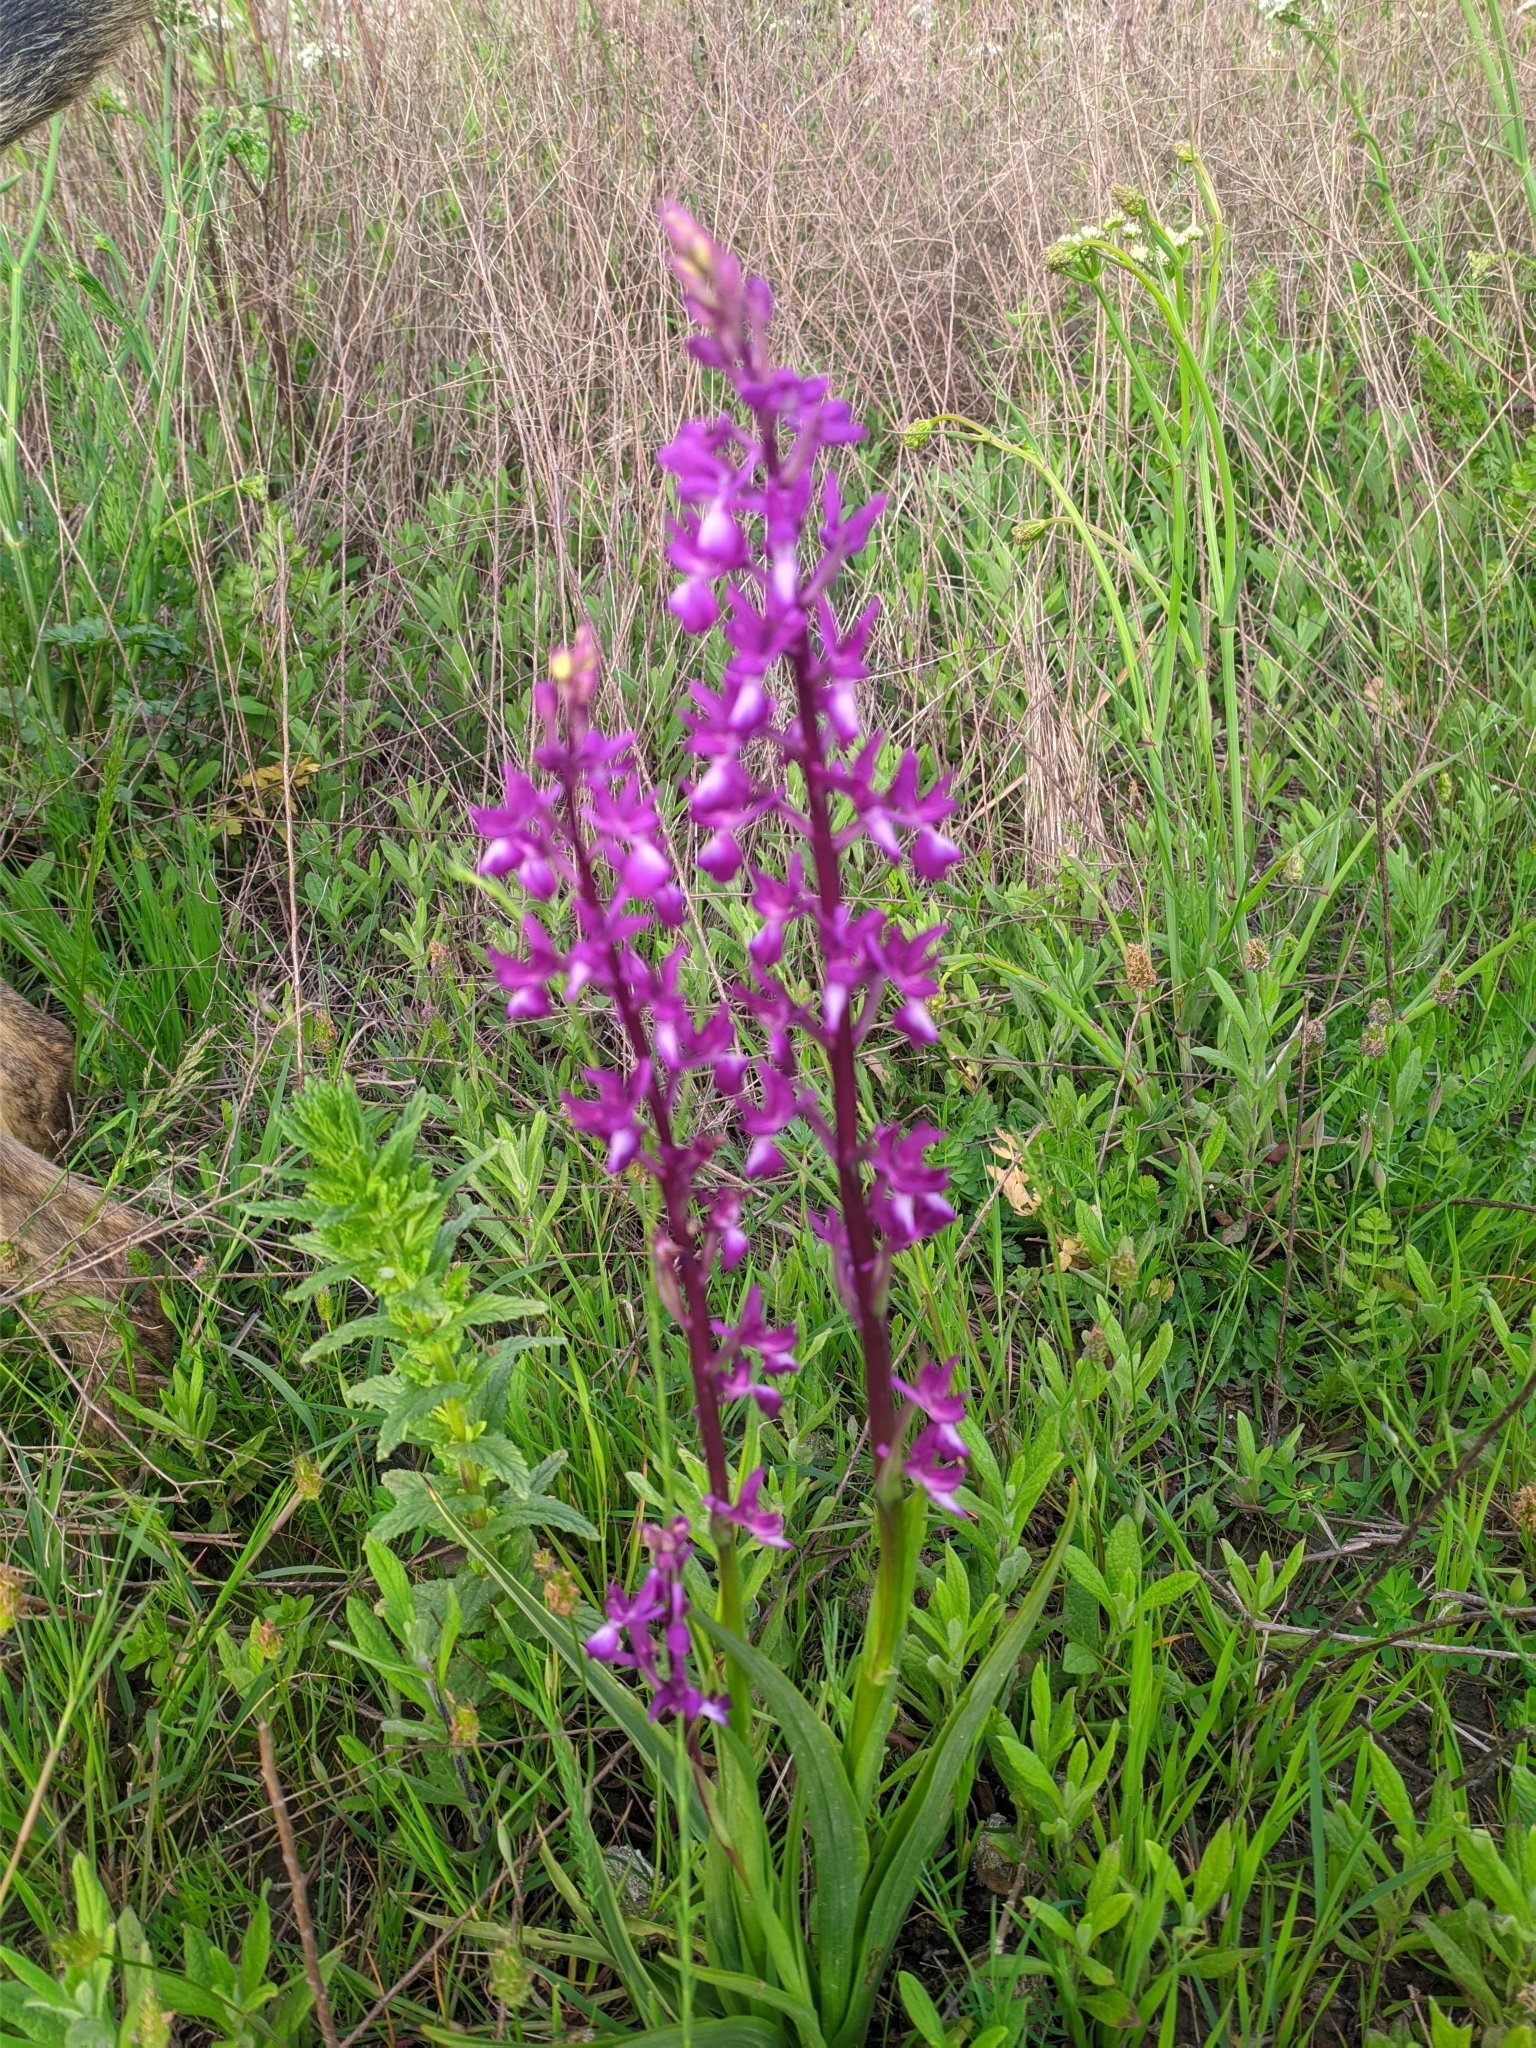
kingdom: Plantae
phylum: Tracheophyta
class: Liliopsida
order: Asparagales
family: Orchidaceae
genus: Anacamptis
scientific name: Anacamptis laxiflora
